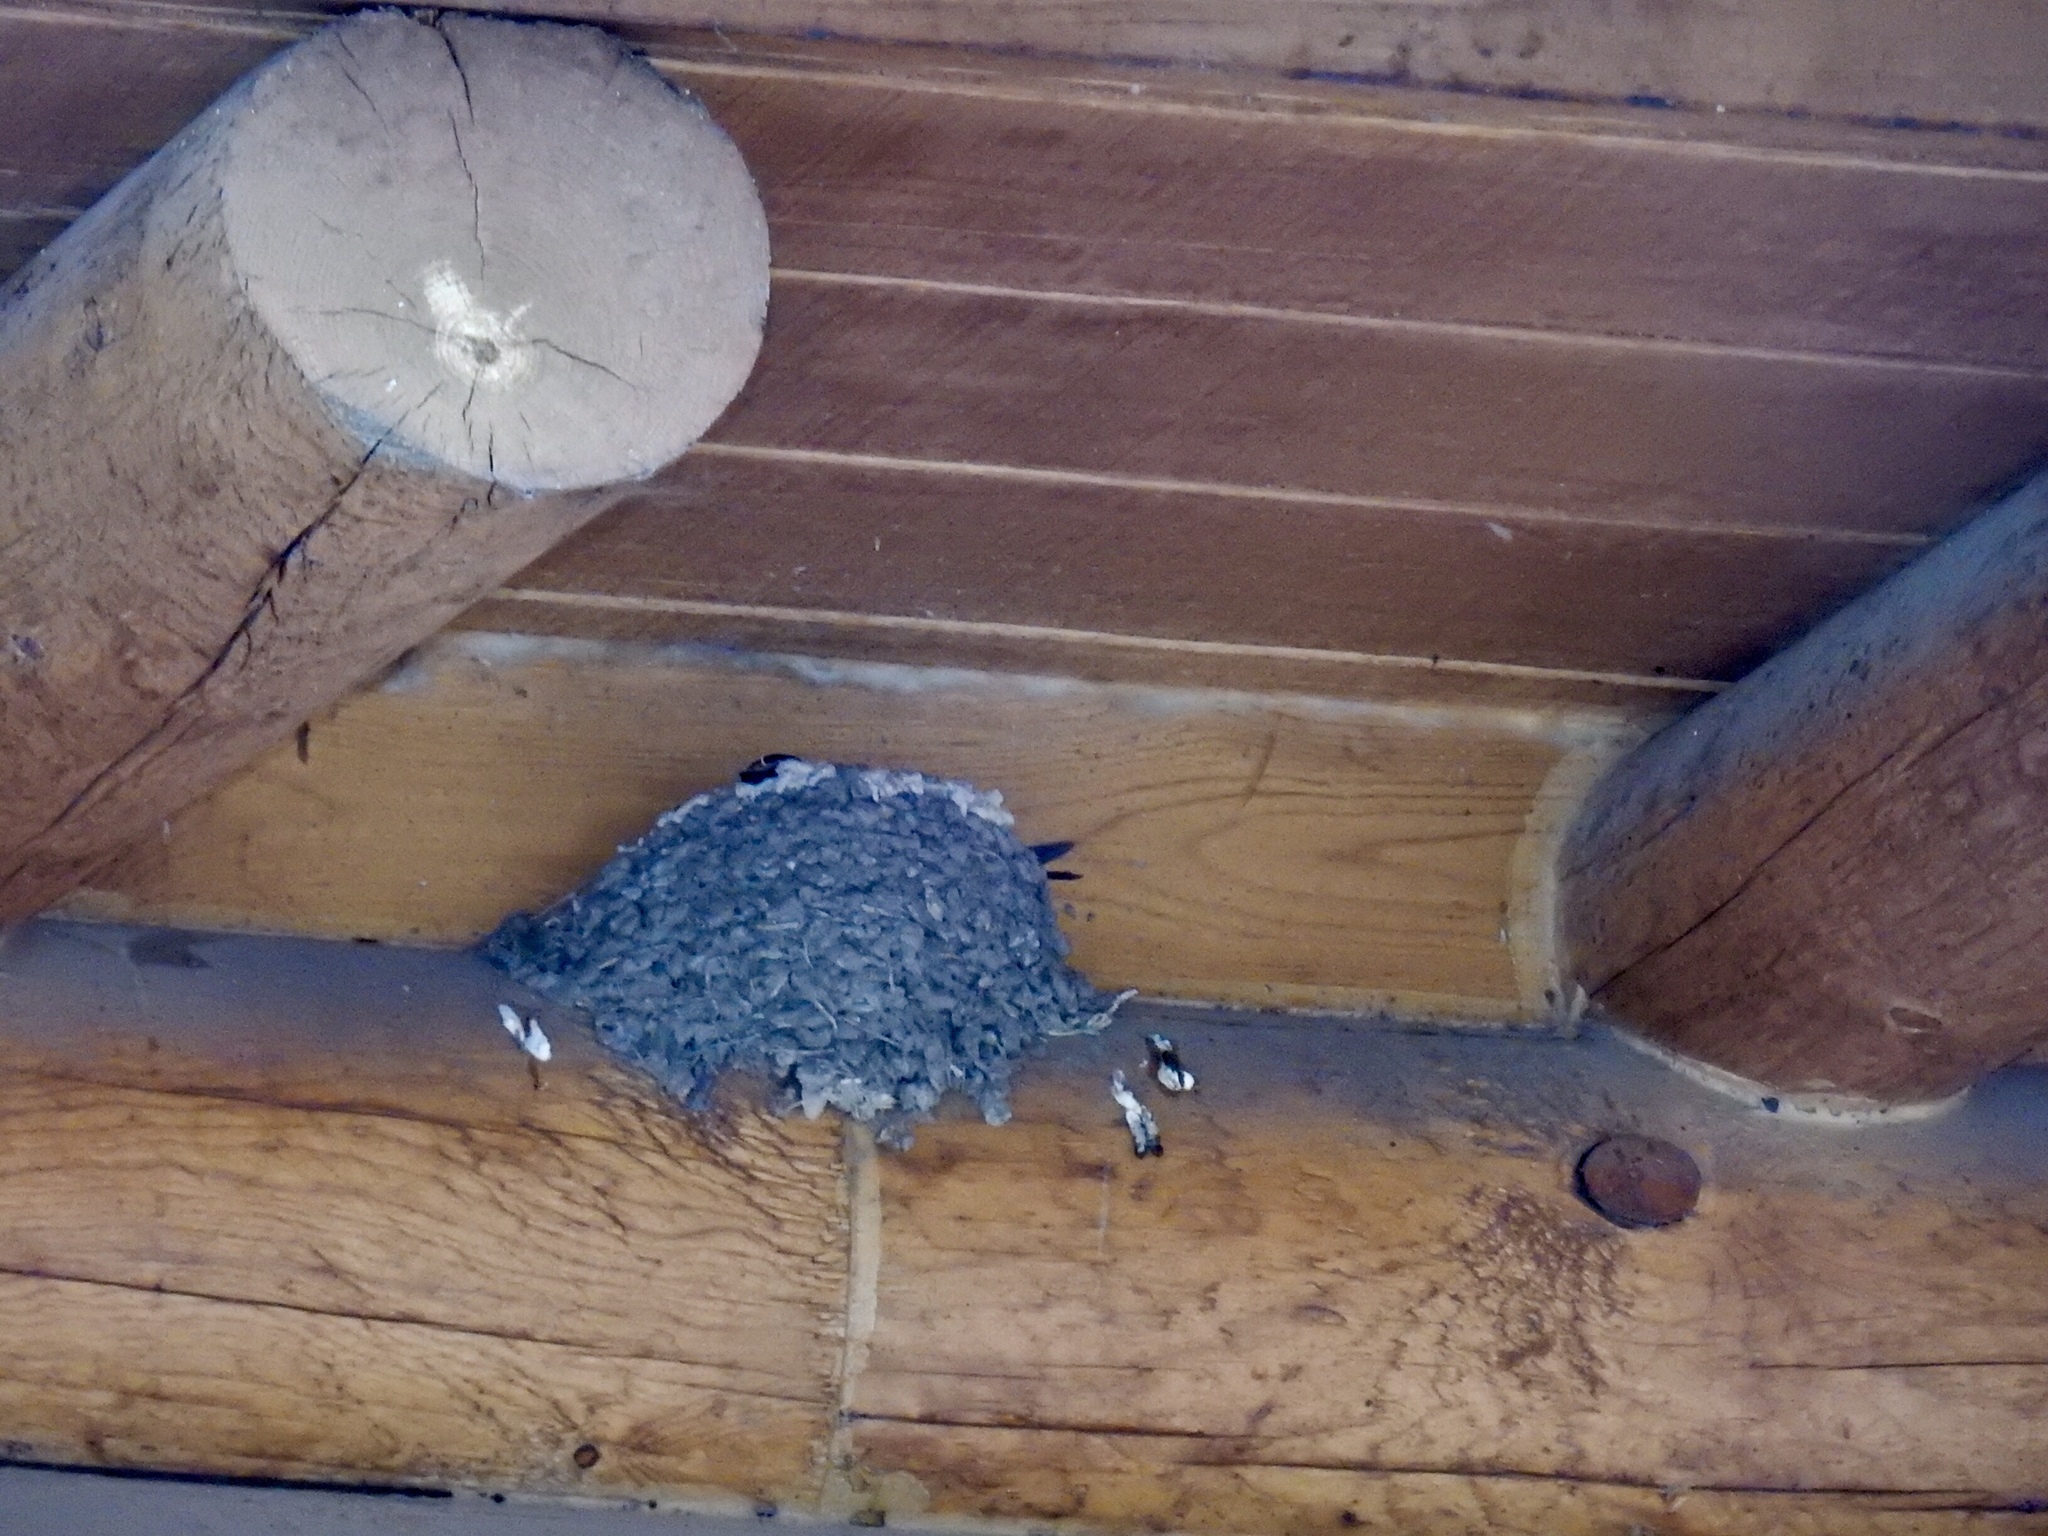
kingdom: Animalia
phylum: Chordata
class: Aves
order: Passeriformes
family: Hirundinidae
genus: Hirundo
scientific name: Hirundo rustica
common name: Barn swallow
